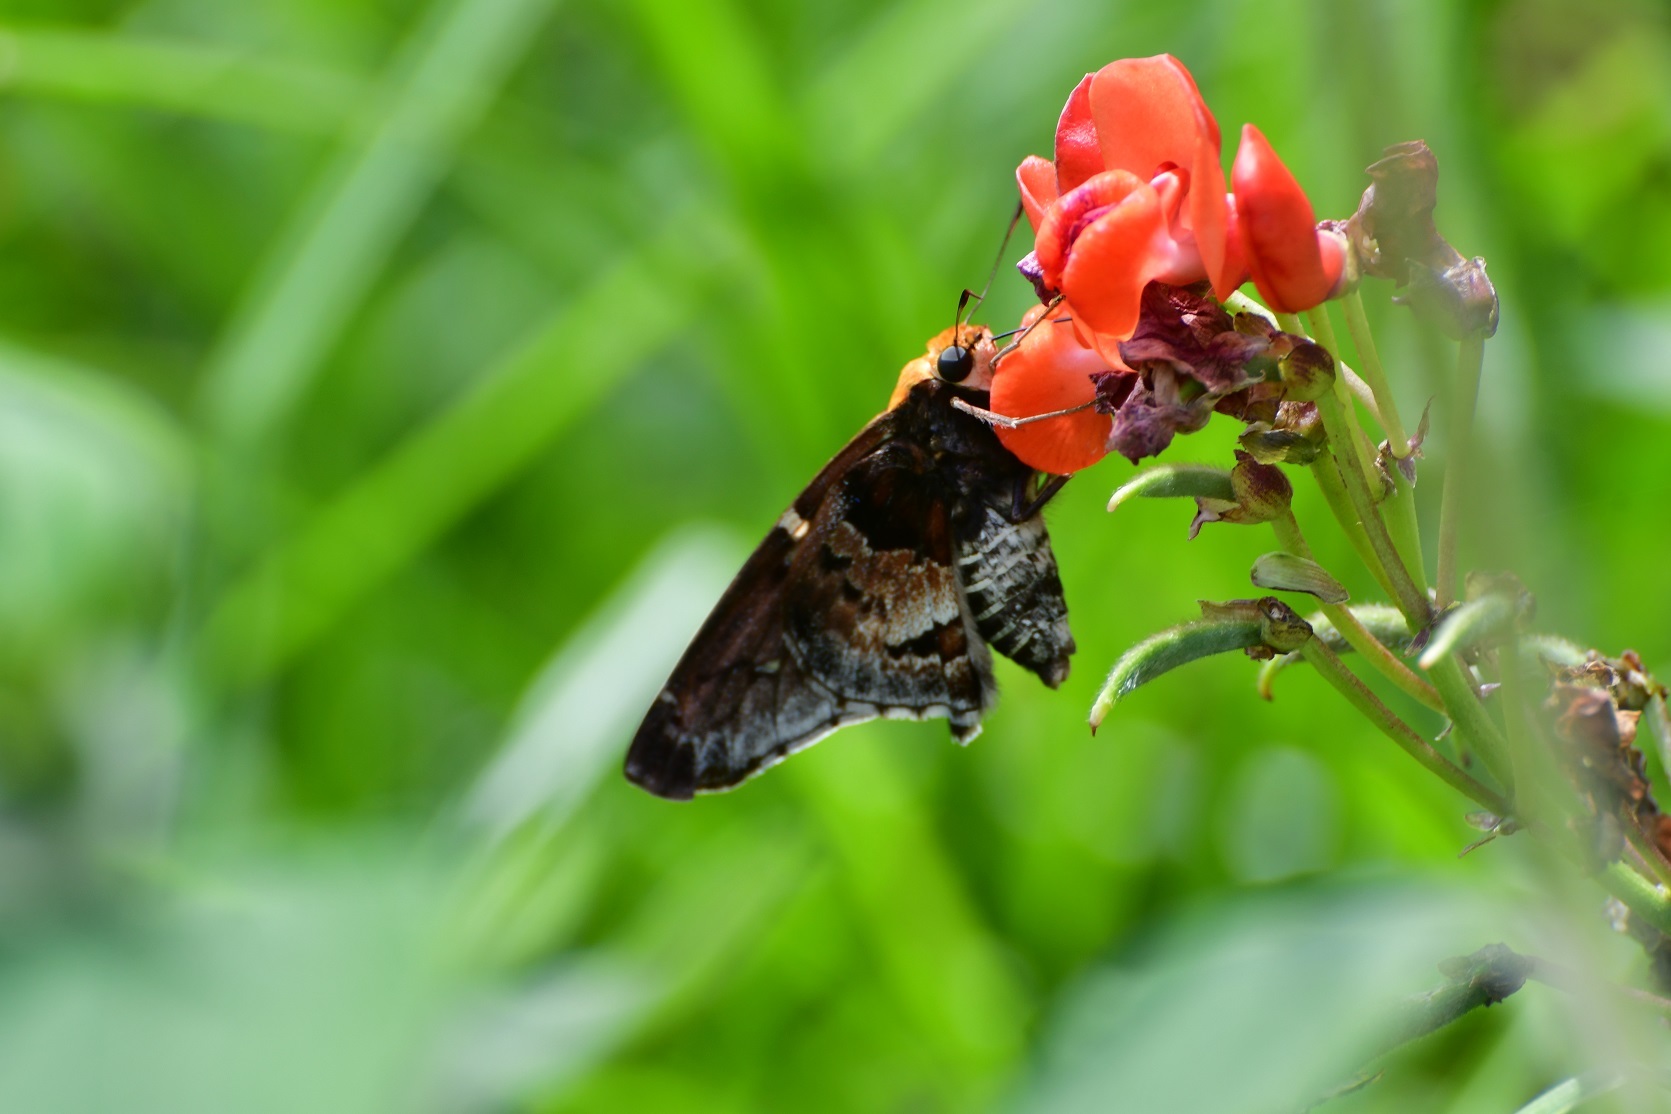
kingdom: Animalia
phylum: Arthropoda
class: Insecta
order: Lepidoptera
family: Hesperiidae
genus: Proteides
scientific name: Proteides mercurius
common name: Mercurial skipper
